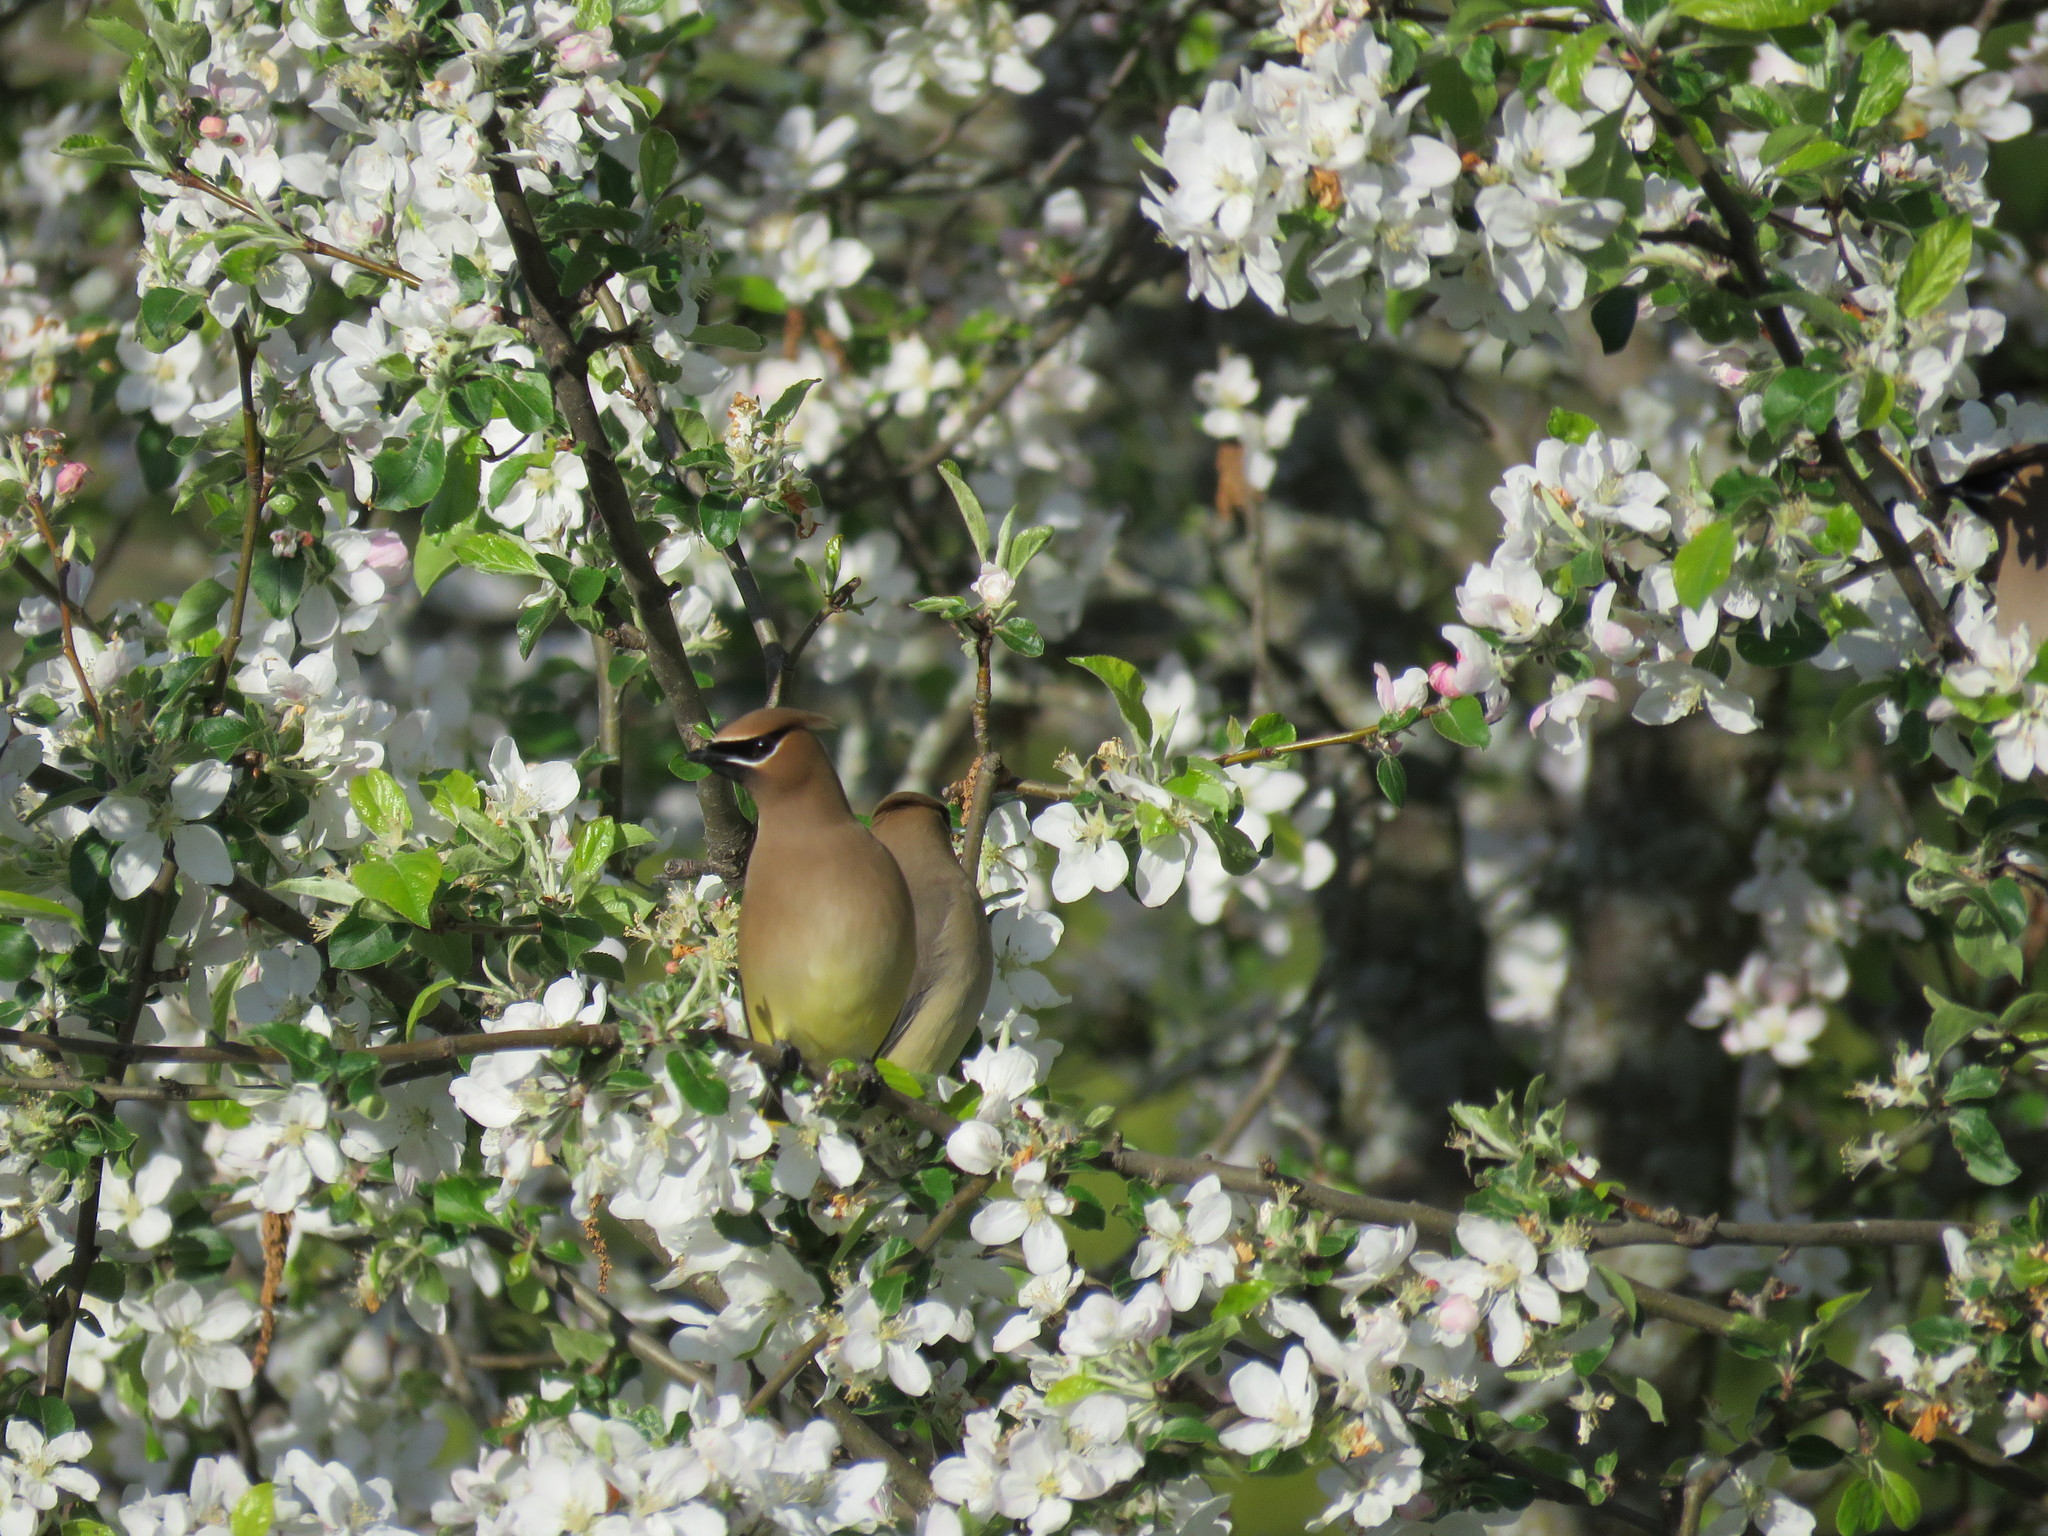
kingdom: Animalia
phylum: Chordata
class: Aves
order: Passeriformes
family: Bombycillidae
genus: Bombycilla
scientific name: Bombycilla cedrorum
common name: Cedar waxwing
